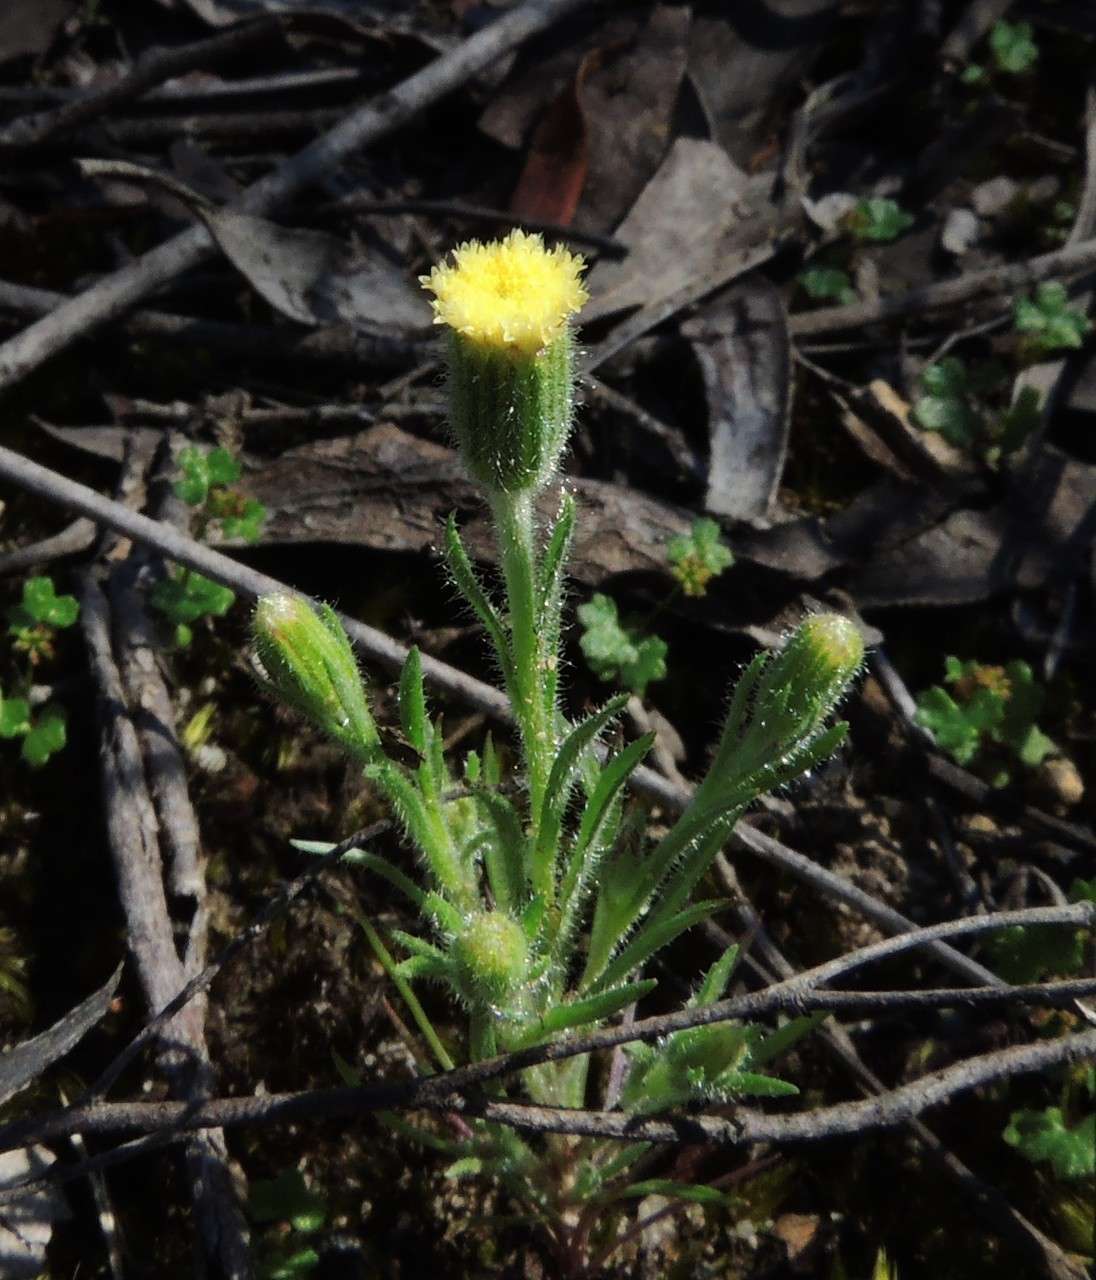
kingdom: Plantae
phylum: Tracheophyta
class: Magnoliopsida
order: Asterales
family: Asteraceae
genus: Millotia
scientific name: Millotia tenuifolia
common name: Soft millotia
